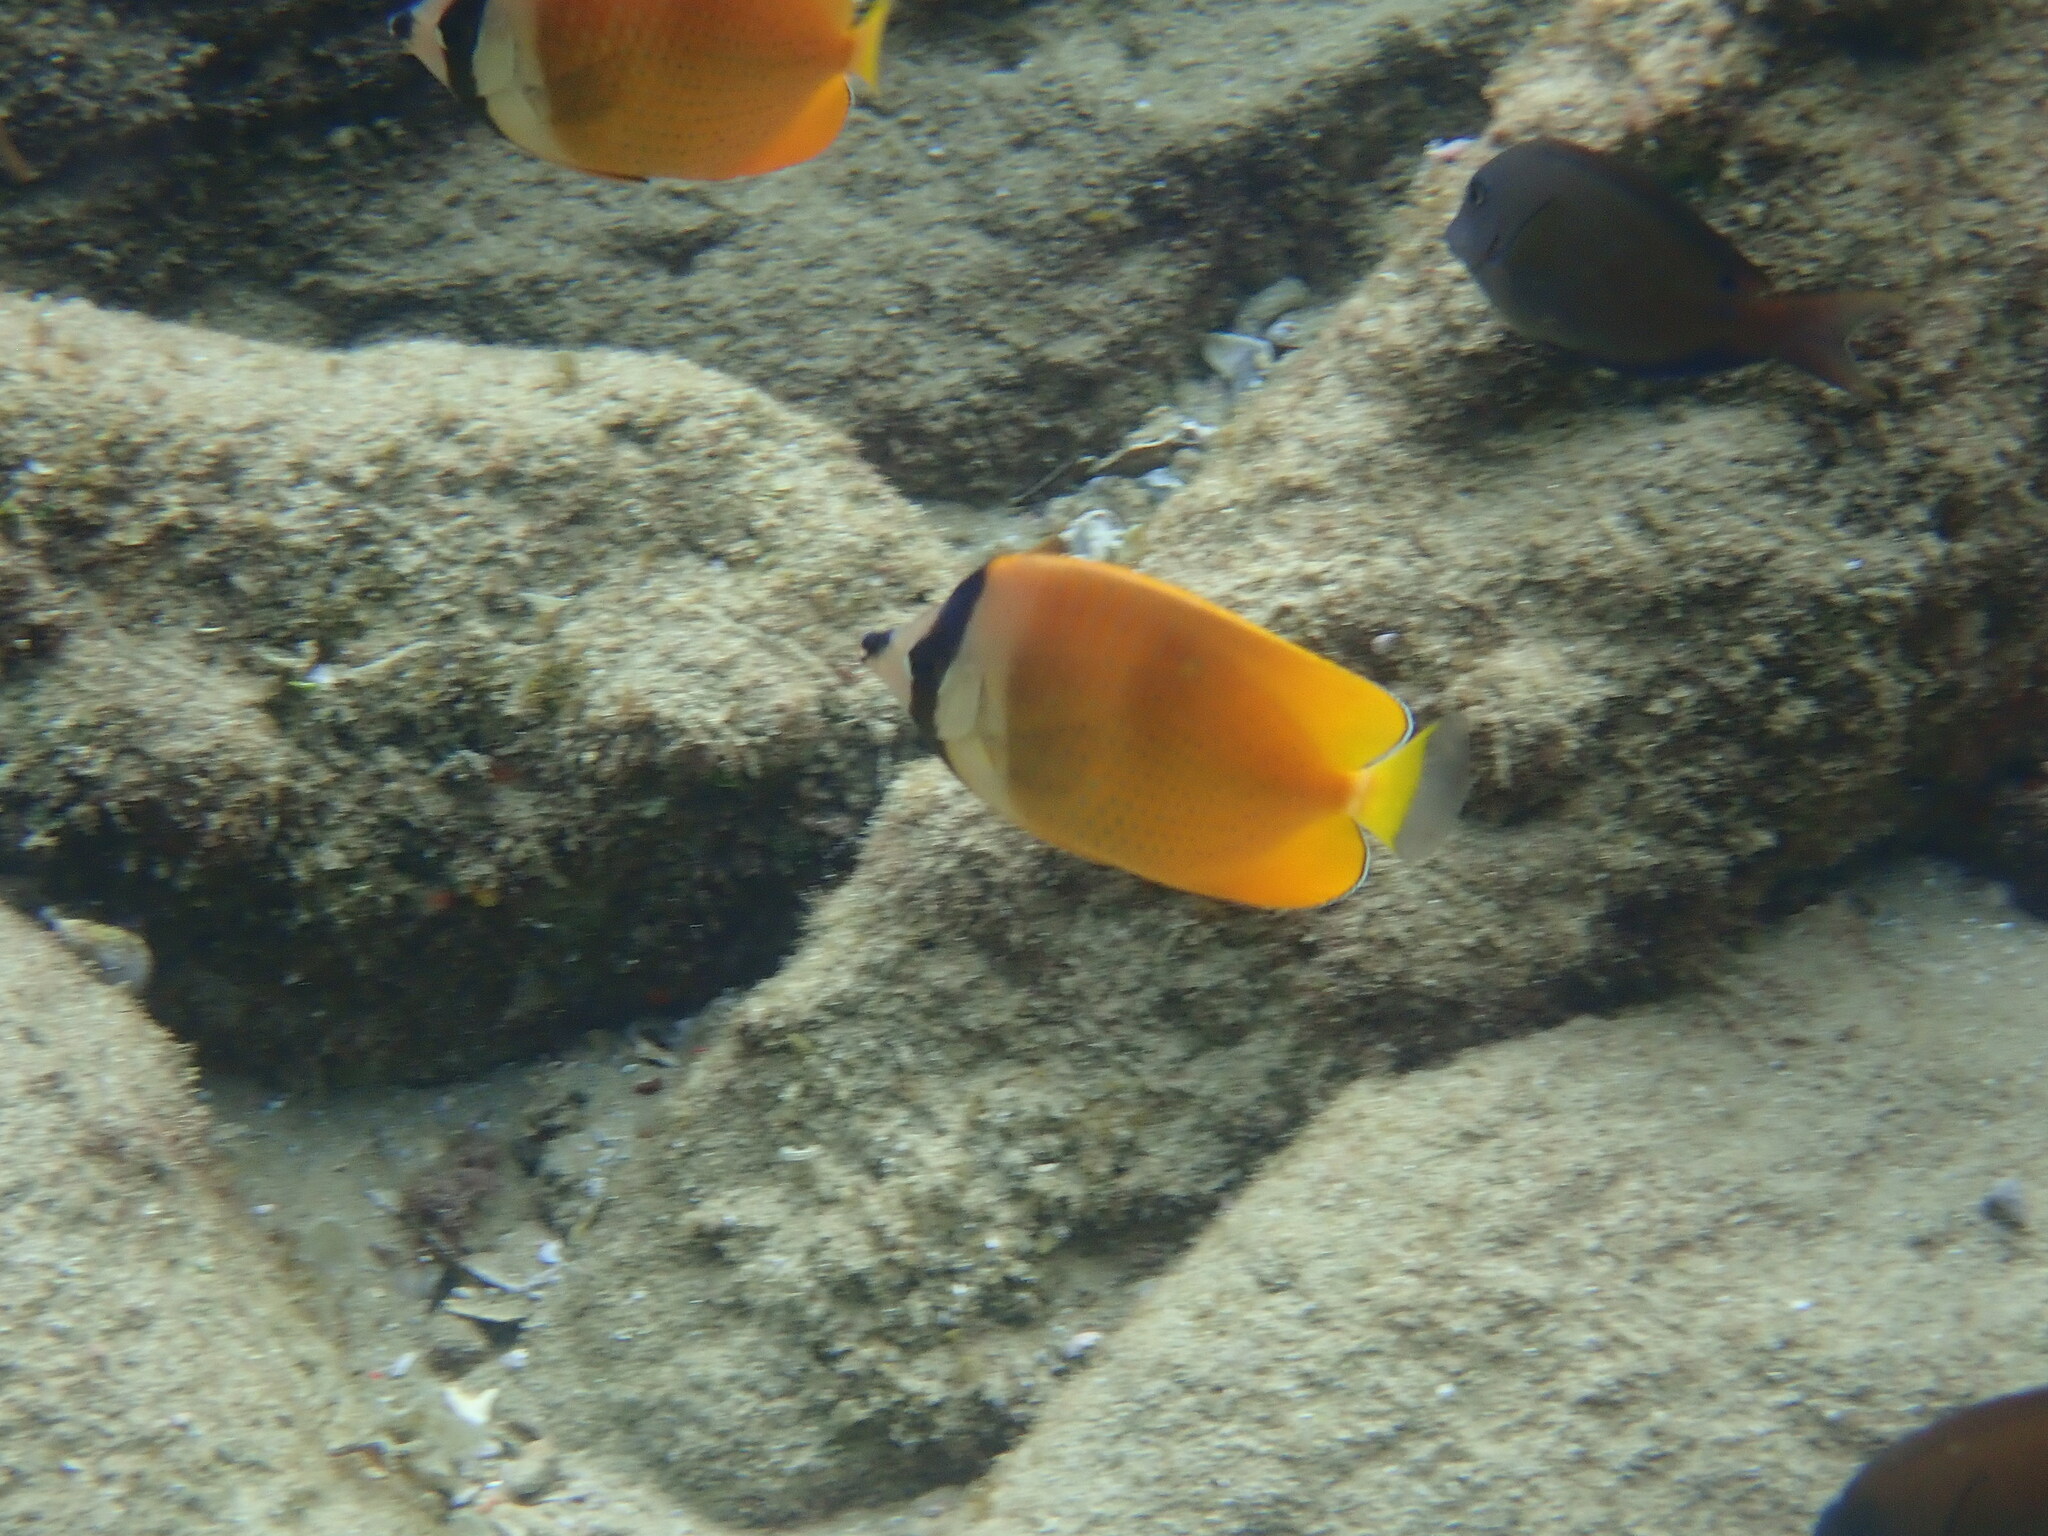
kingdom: Animalia
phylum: Chordata
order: Perciformes
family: Chaetodontidae
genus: Chaetodon
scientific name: Chaetodon kleinii
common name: Klein's butterflyfish
